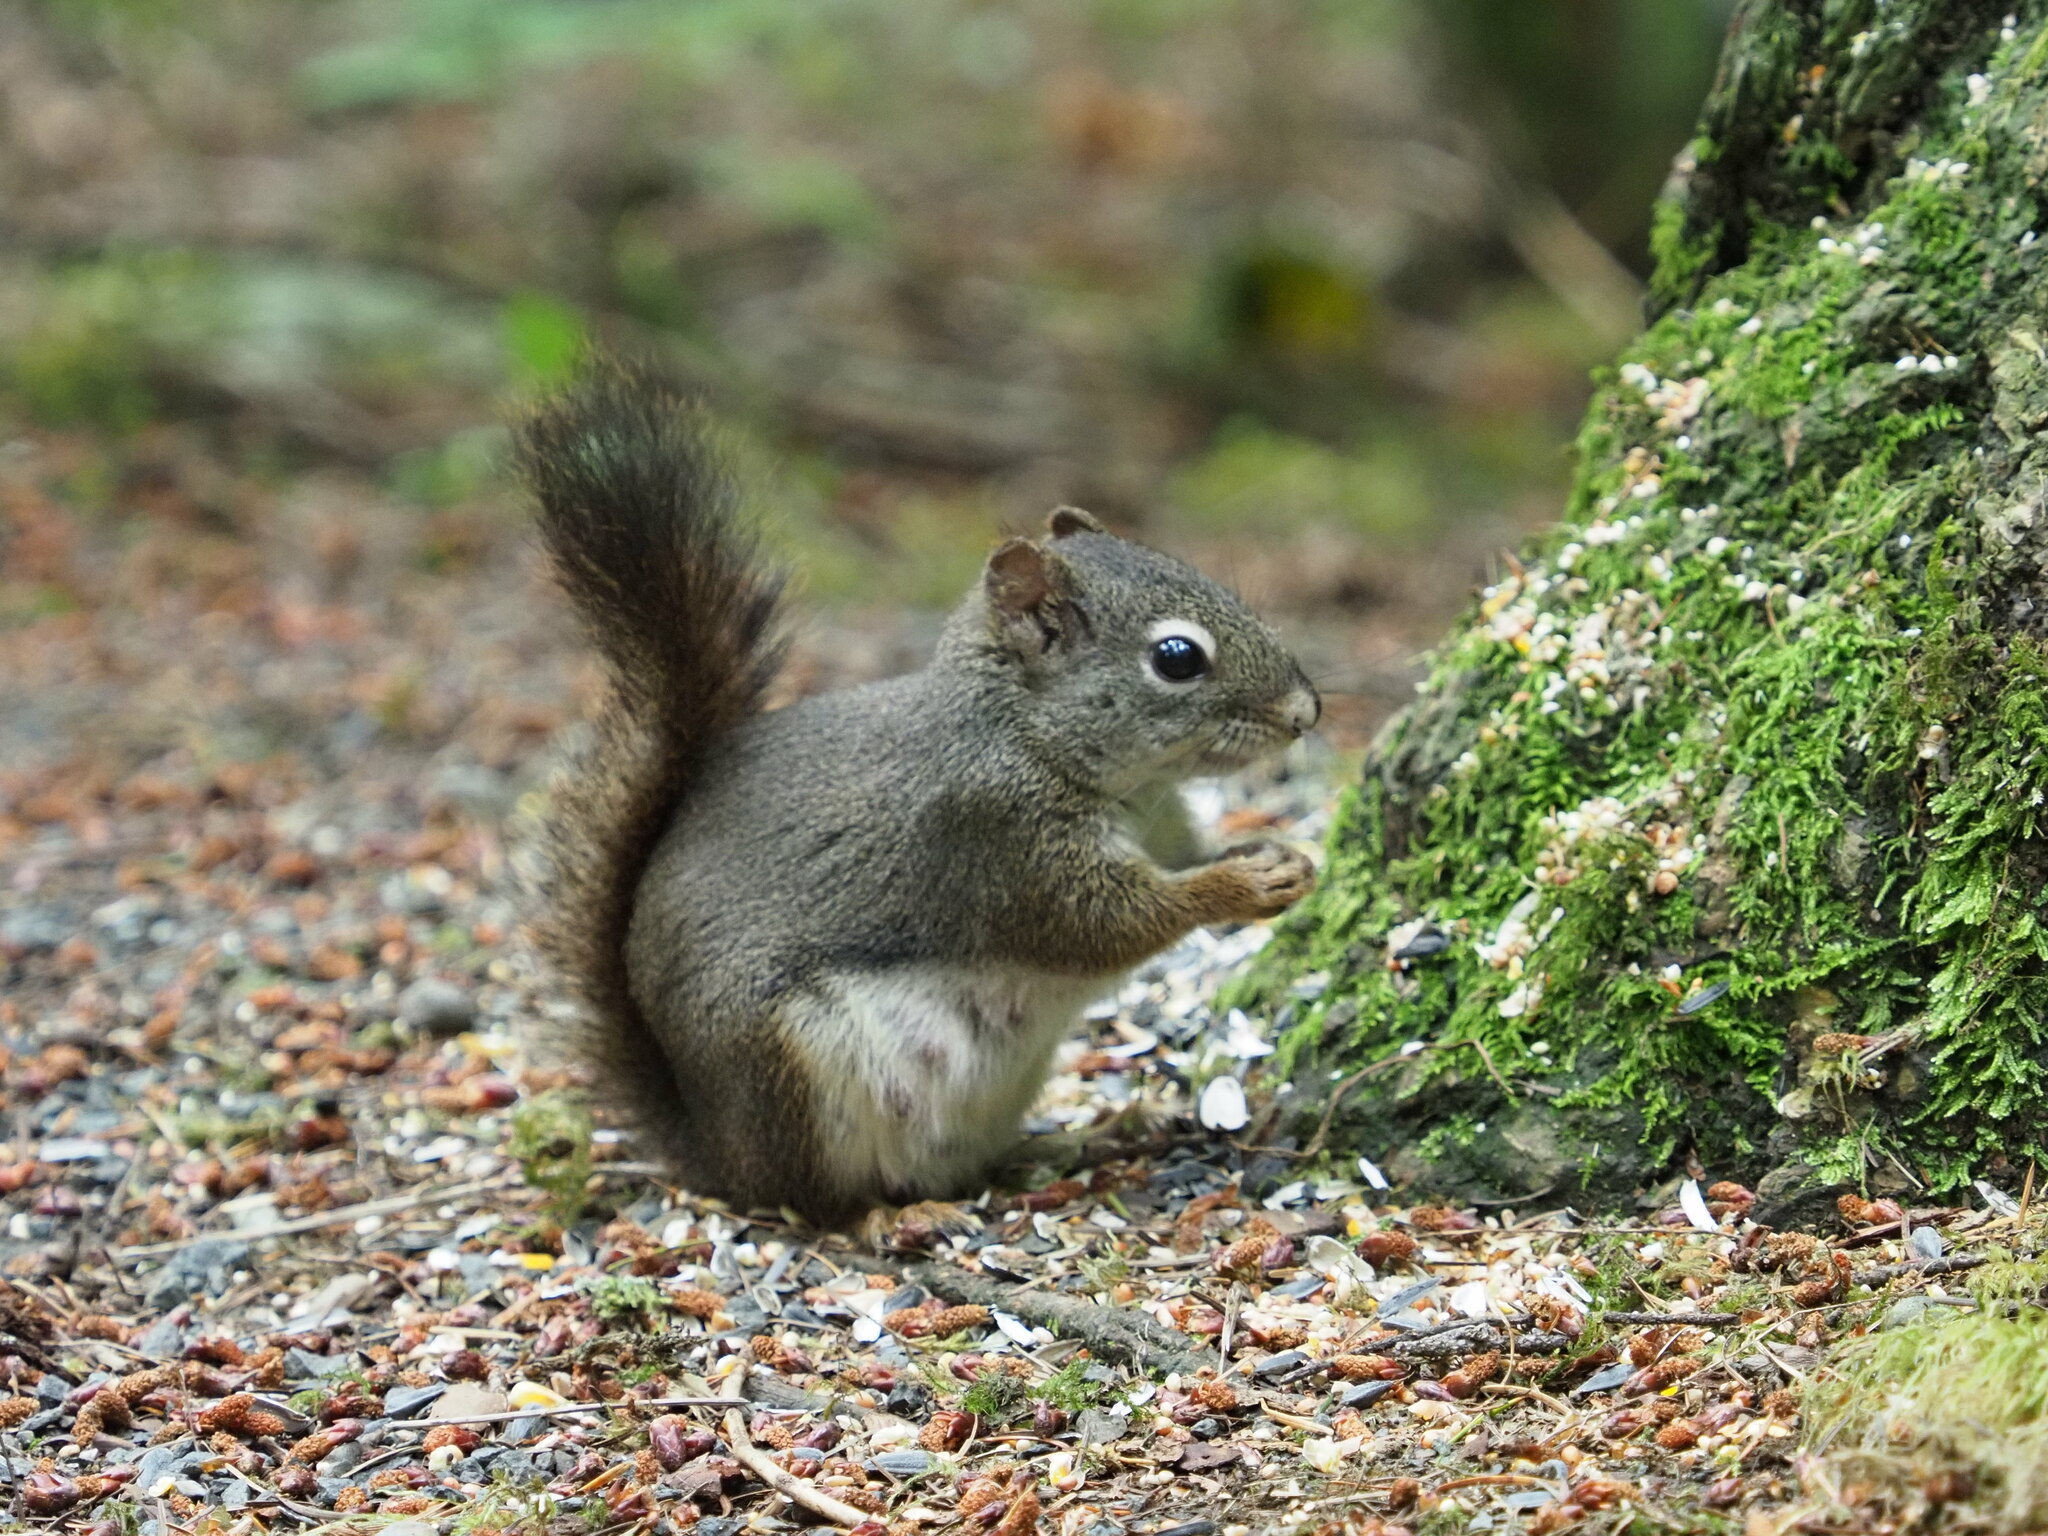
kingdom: Animalia
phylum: Chordata
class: Mammalia
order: Rodentia
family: Sciuridae
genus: Tamiasciurus
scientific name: Tamiasciurus hudsonicus
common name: Red squirrel
